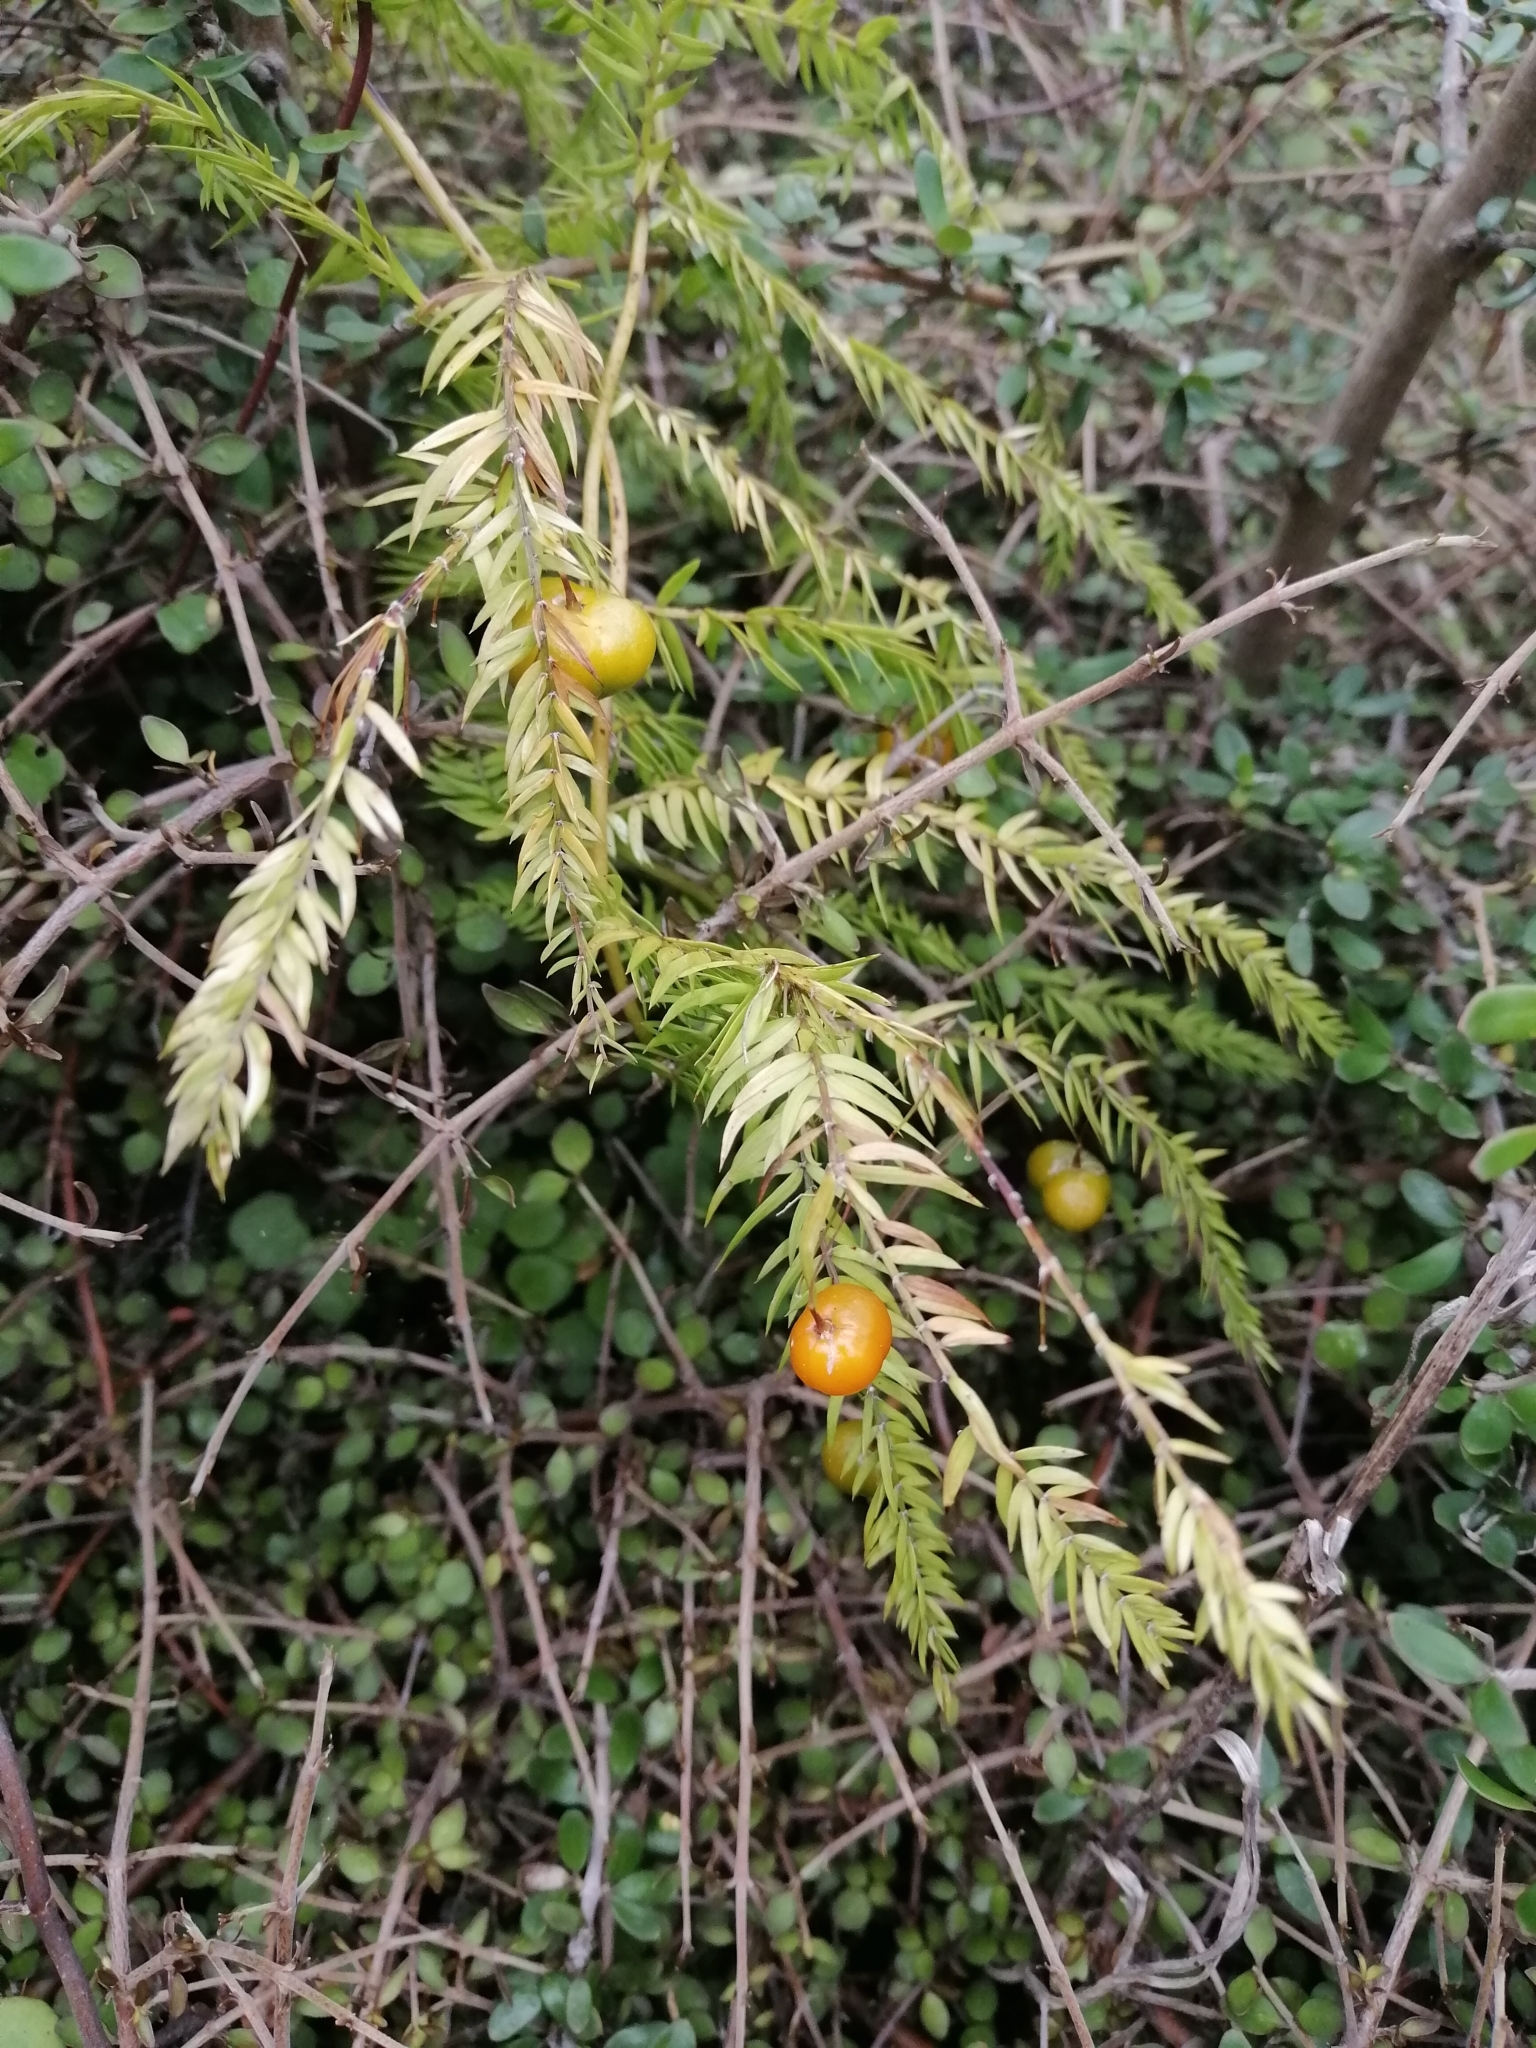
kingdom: Plantae
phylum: Tracheophyta
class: Liliopsida
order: Asparagales
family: Asparagaceae
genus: Asparagus
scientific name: Asparagus scandens
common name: Asparagus-fern
